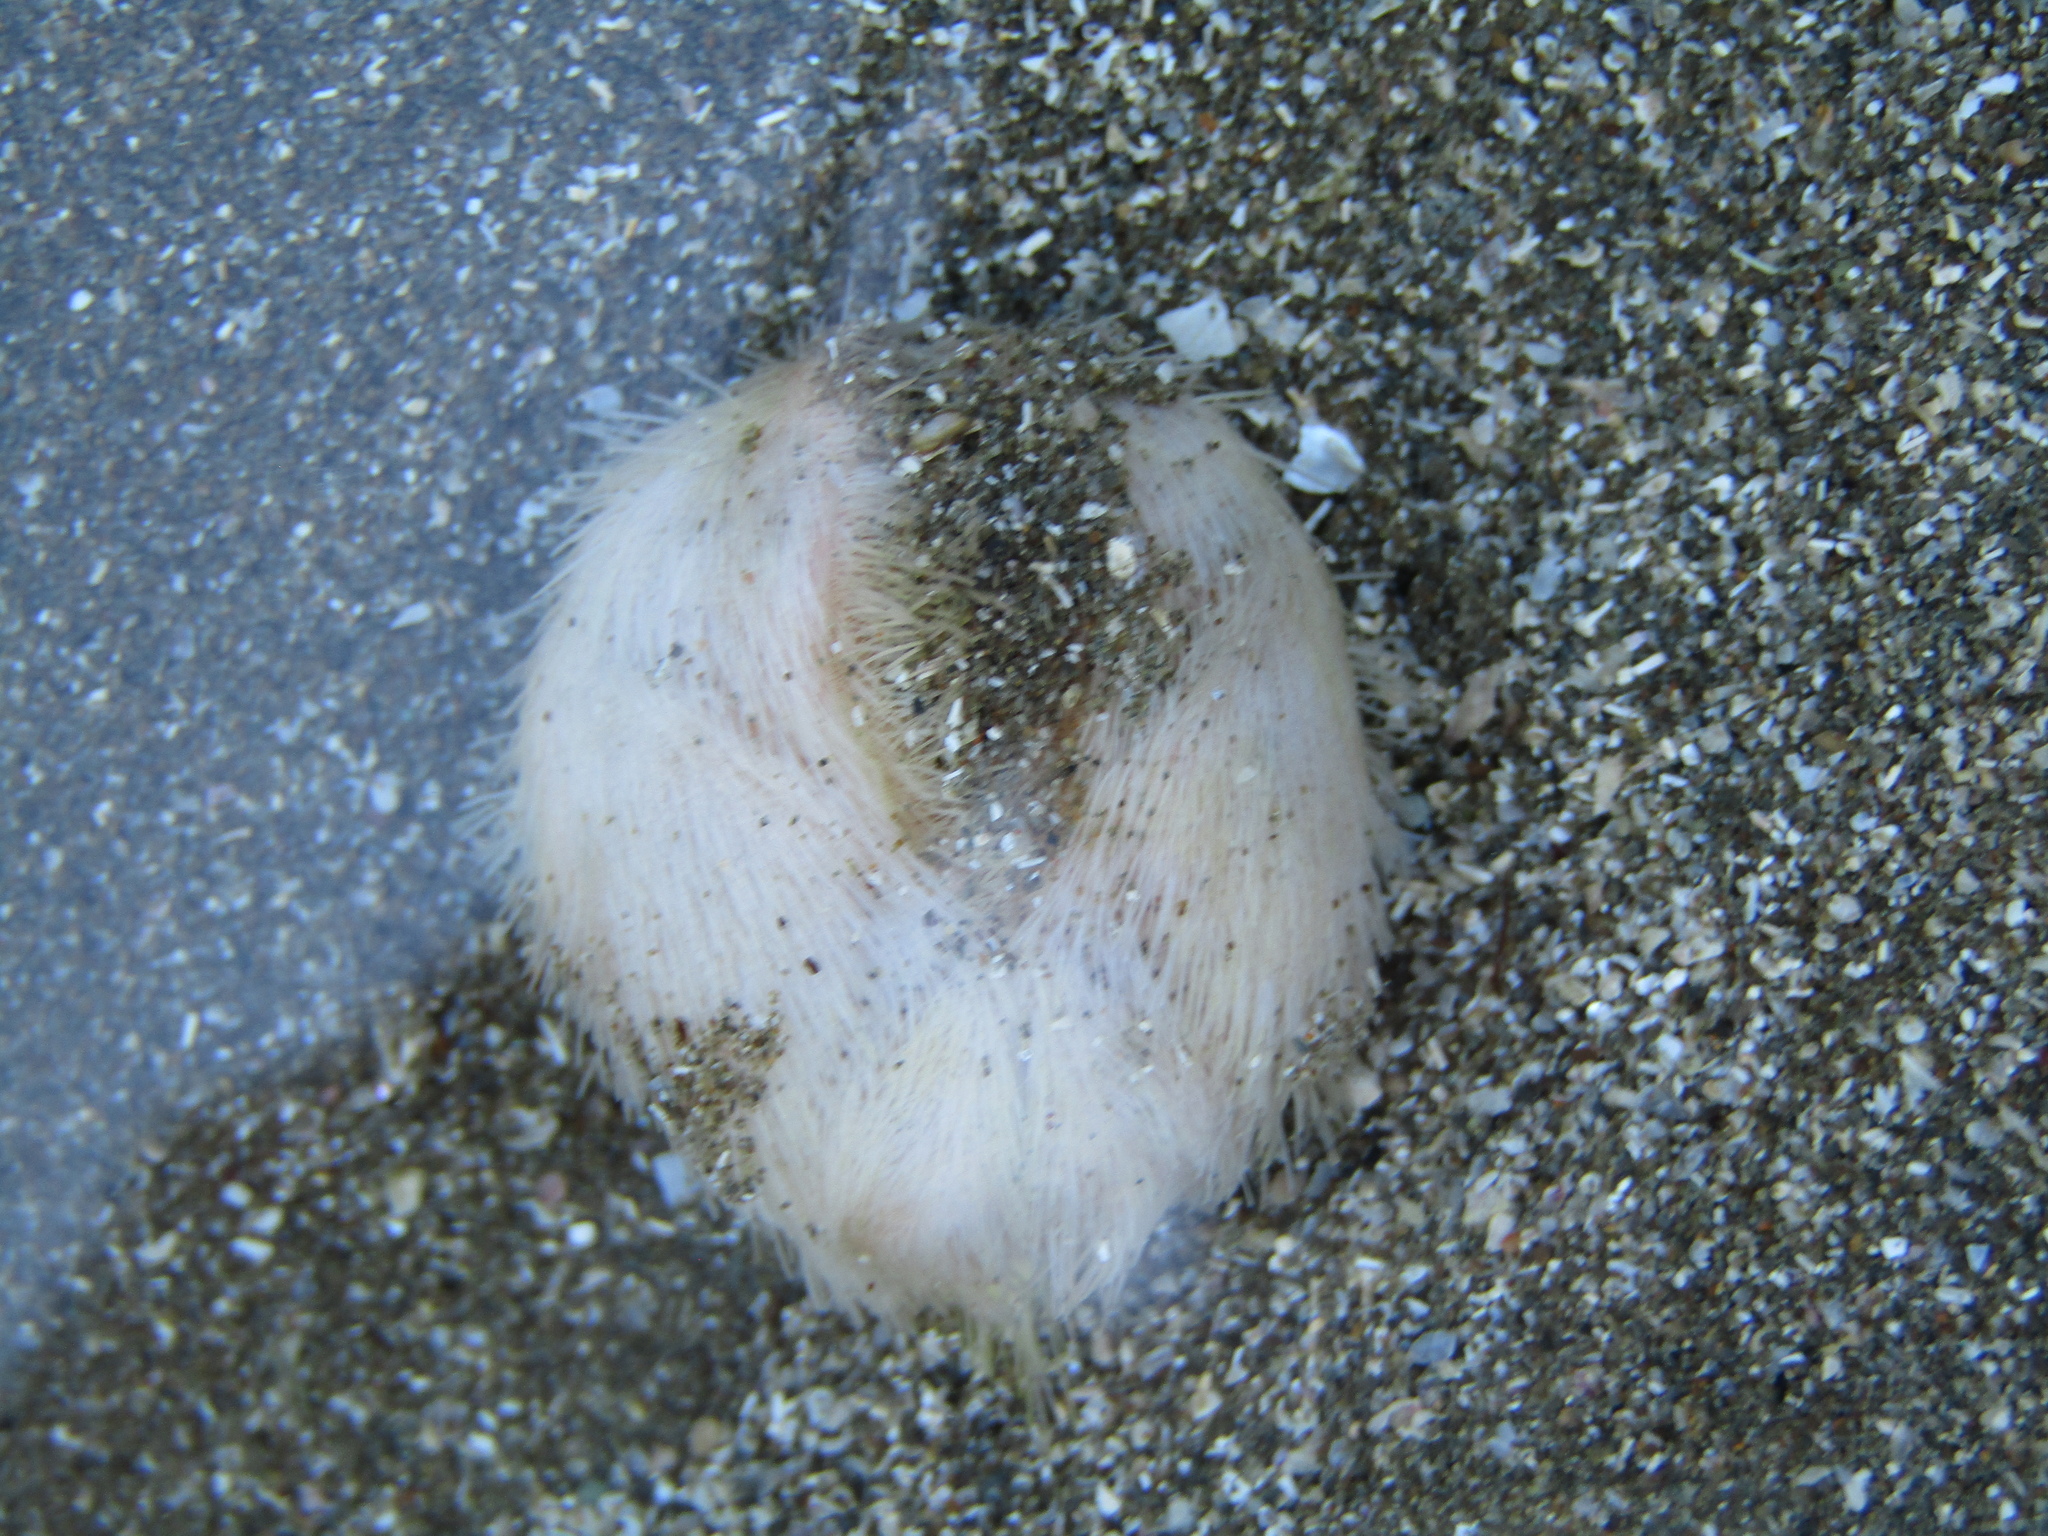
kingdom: Animalia
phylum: Echinodermata
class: Echinoidea
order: Spatangoida
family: Loveniidae
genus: Echinocardium
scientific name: Echinocardium cordatum
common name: Heart-urchin
